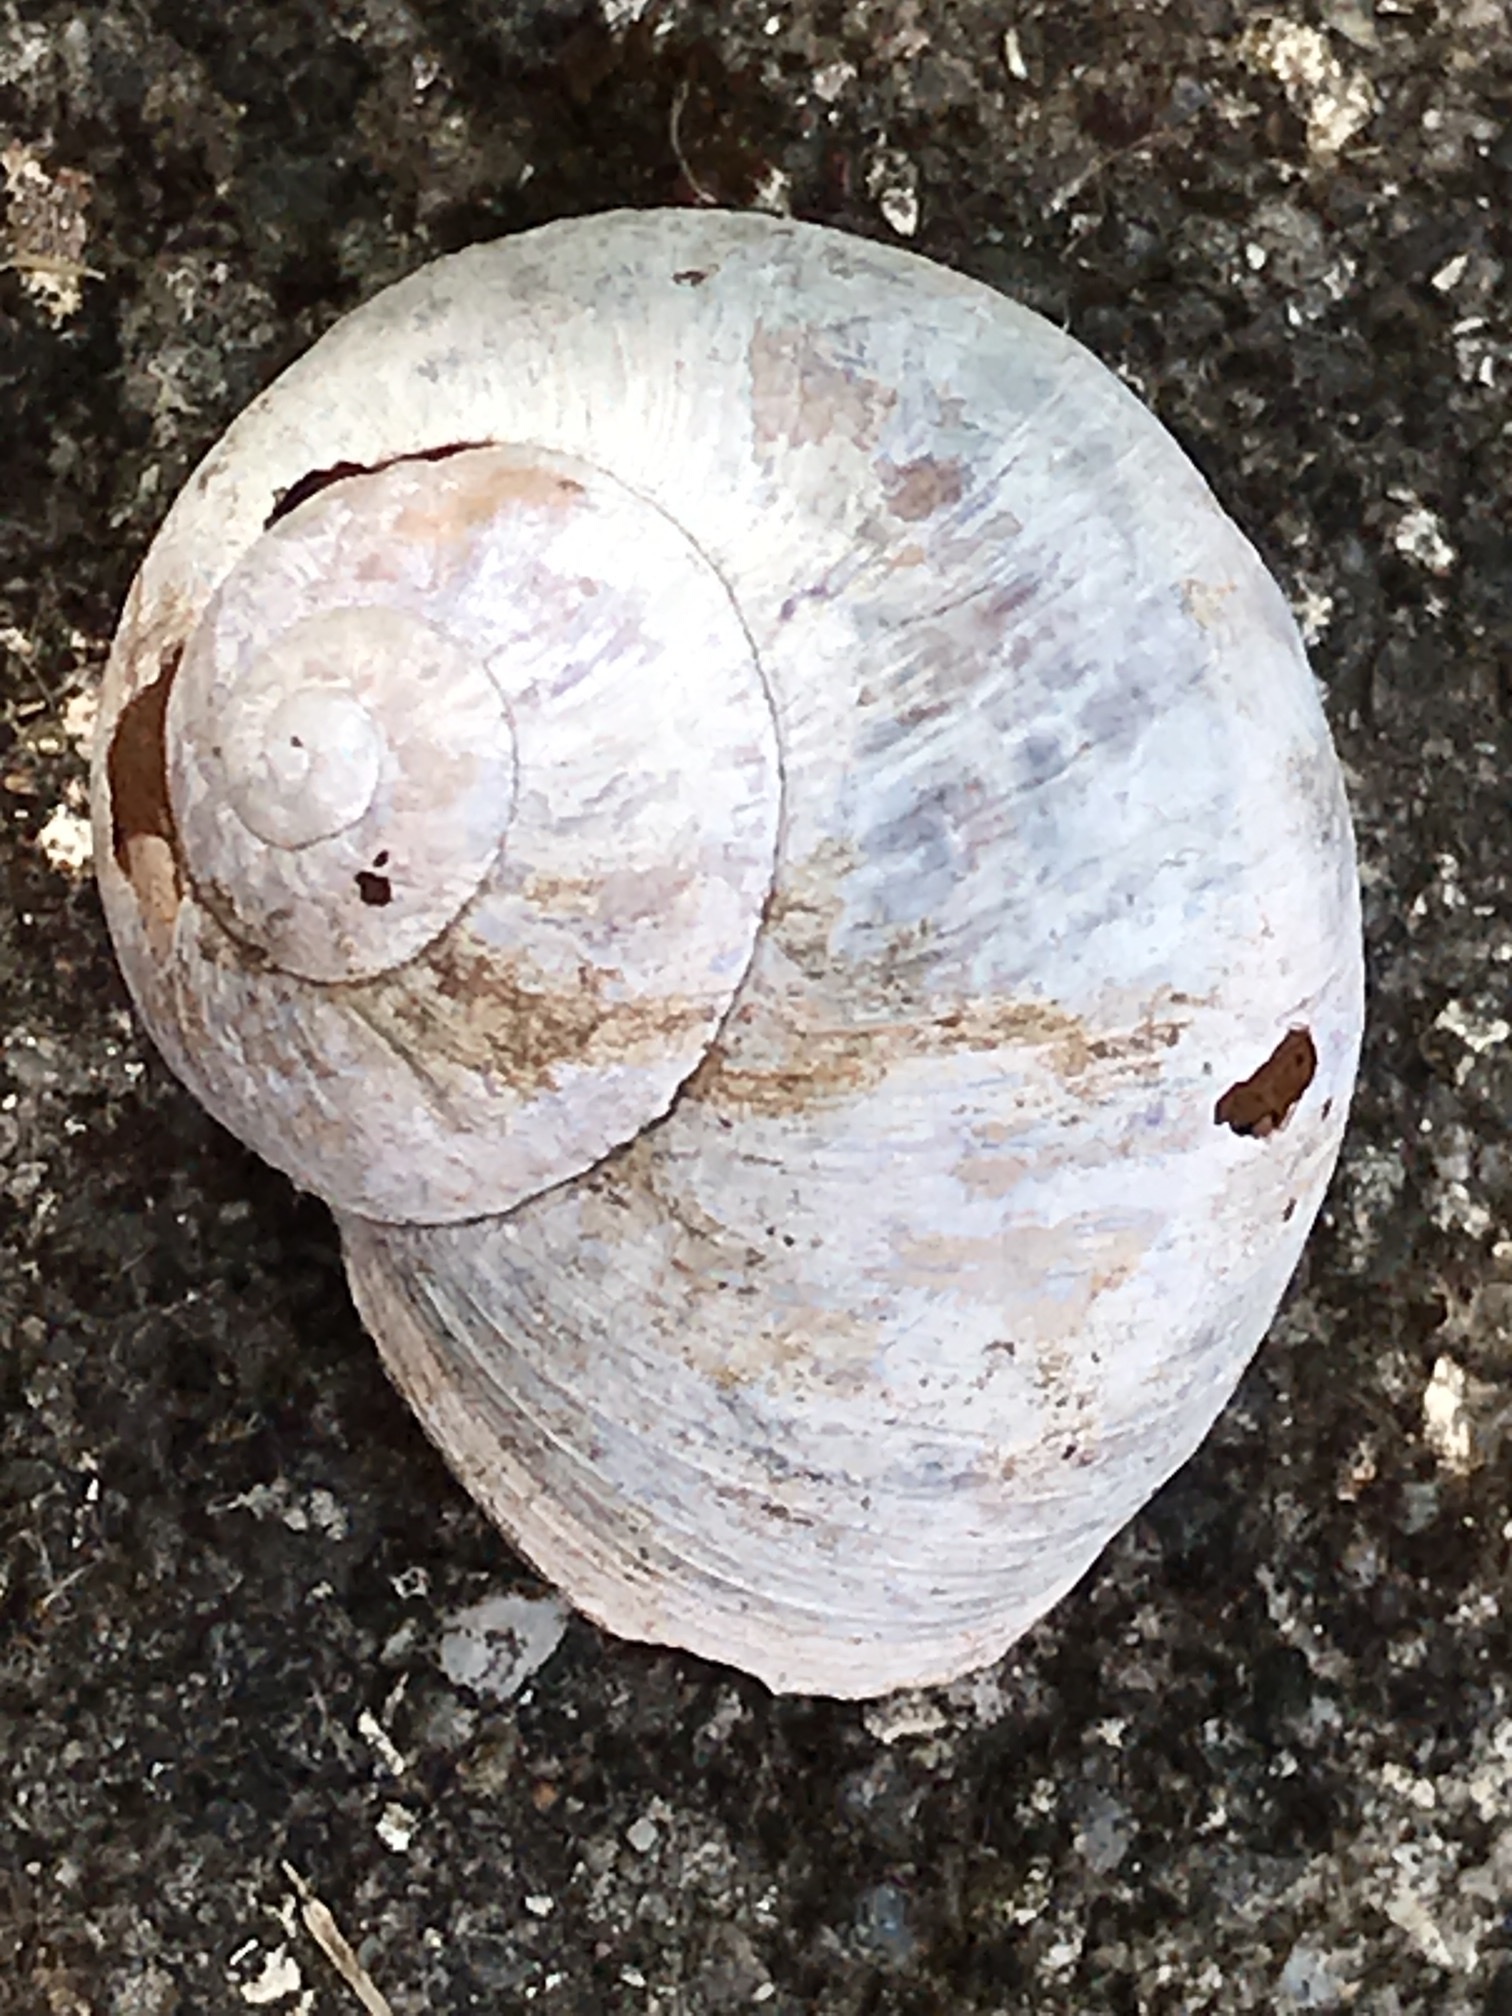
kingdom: Animalia
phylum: Mollusca
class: Gastropoda
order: Stylommatophora
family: Helicidae
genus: Cornu
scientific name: Cornu aspersum
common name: Brown garden snail
